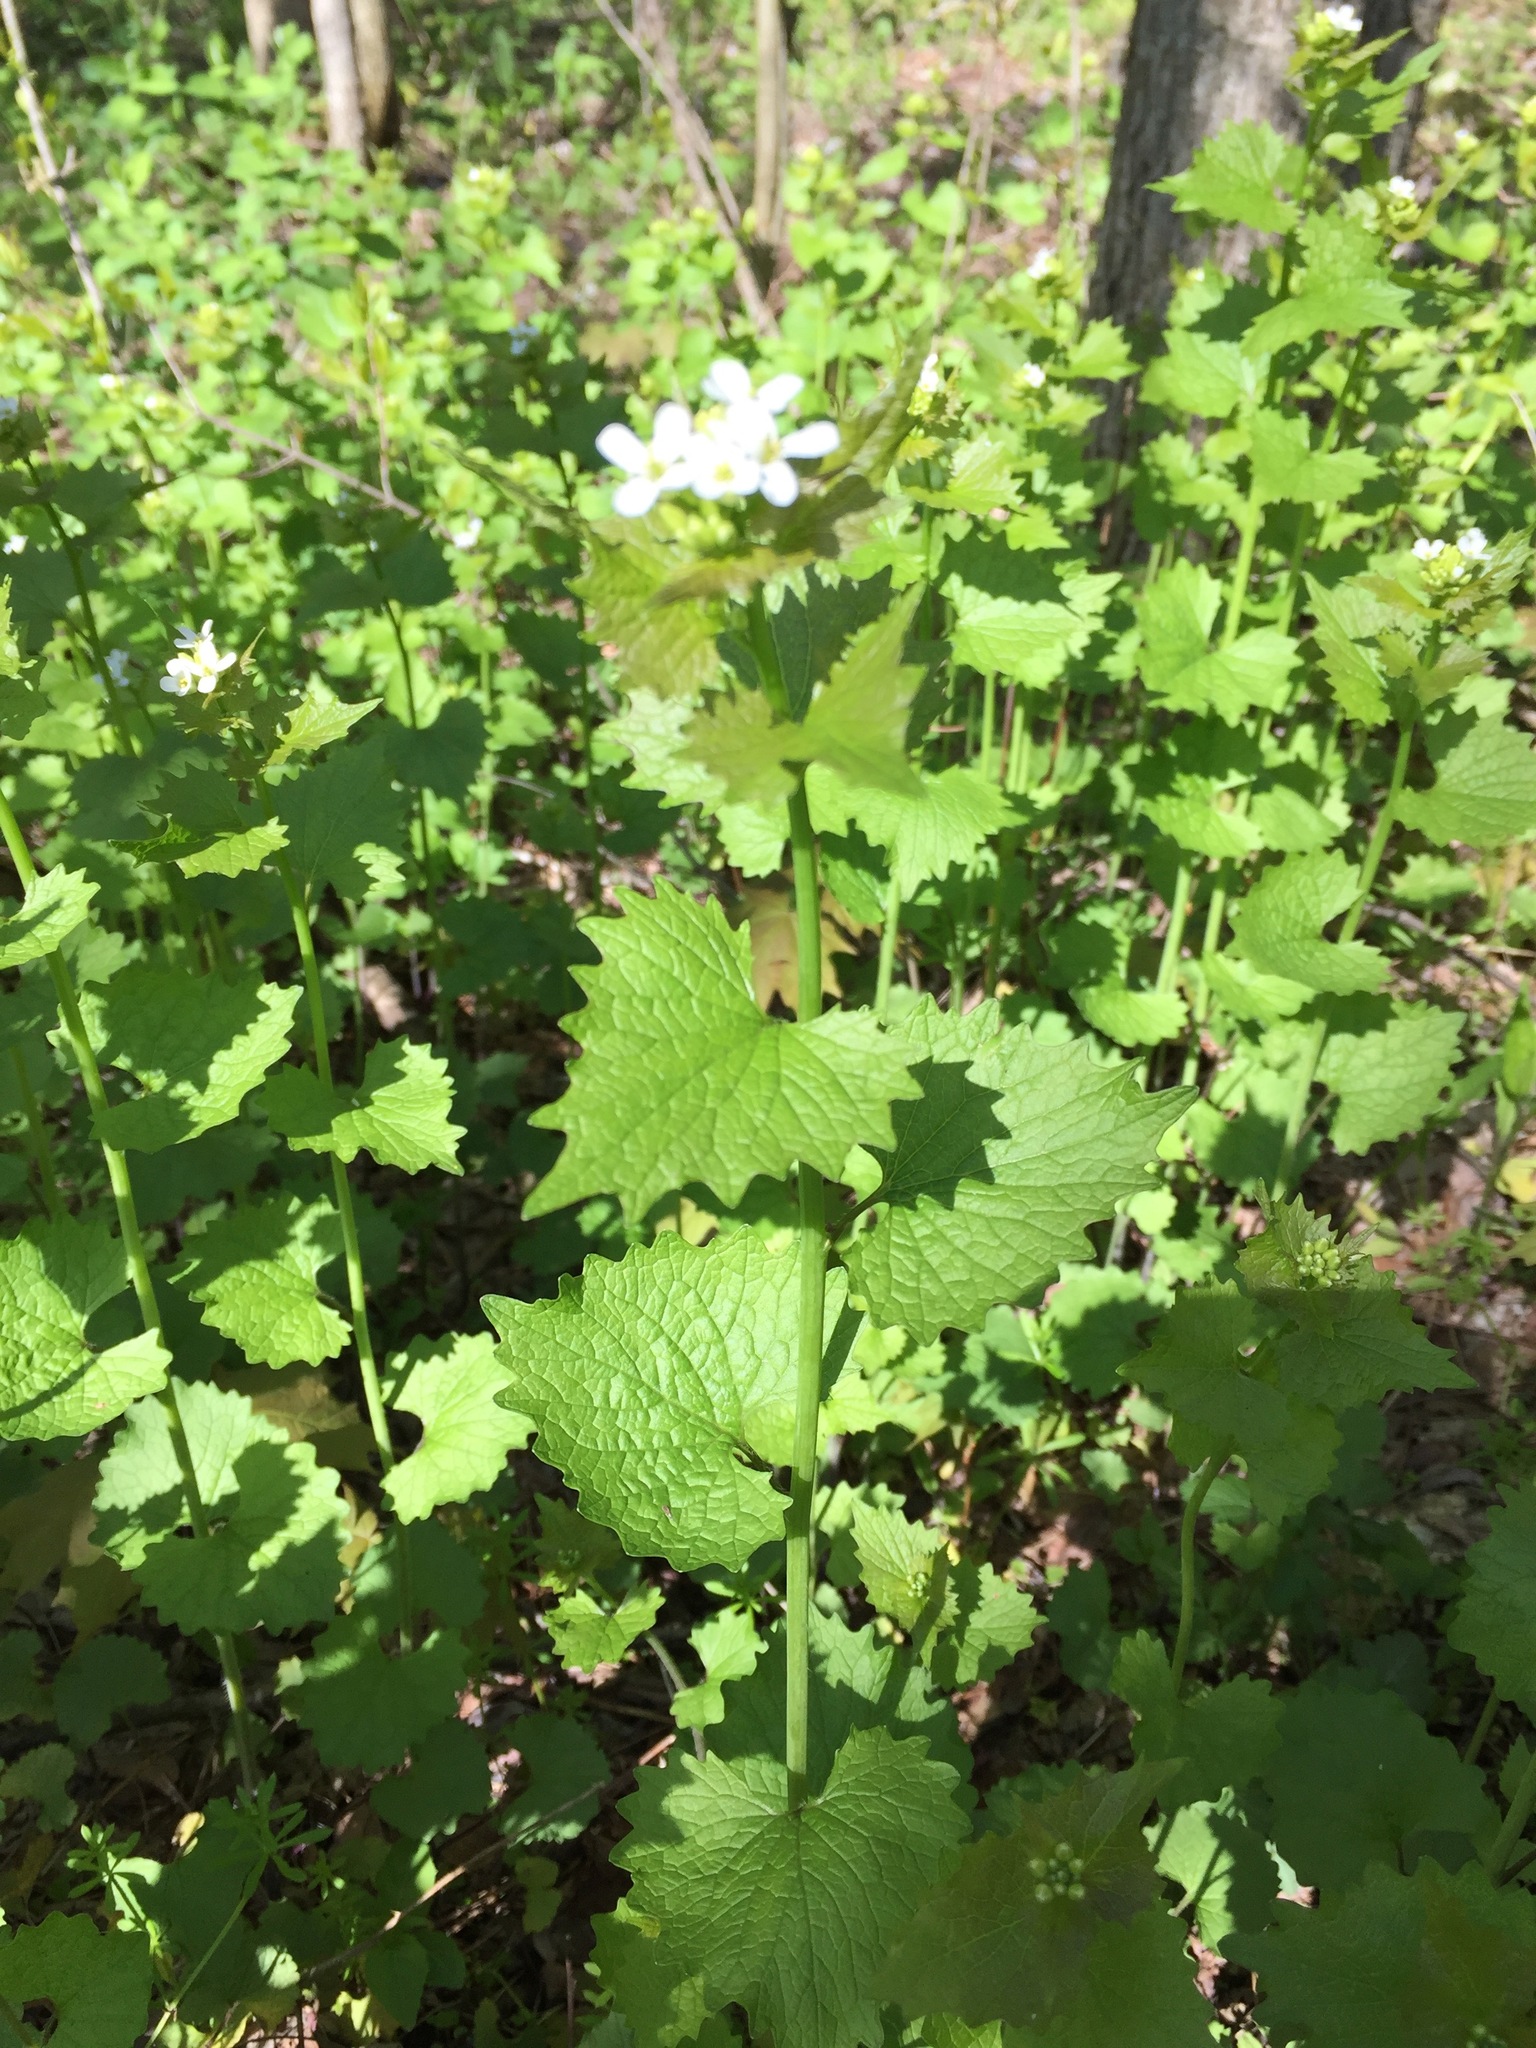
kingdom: Plantae
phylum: Tracheophyta
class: Magnoliopsida
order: Brassicales
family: Brassicaceae
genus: Alliaria
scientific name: Alliaria petiolata
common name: Garlic mustard
